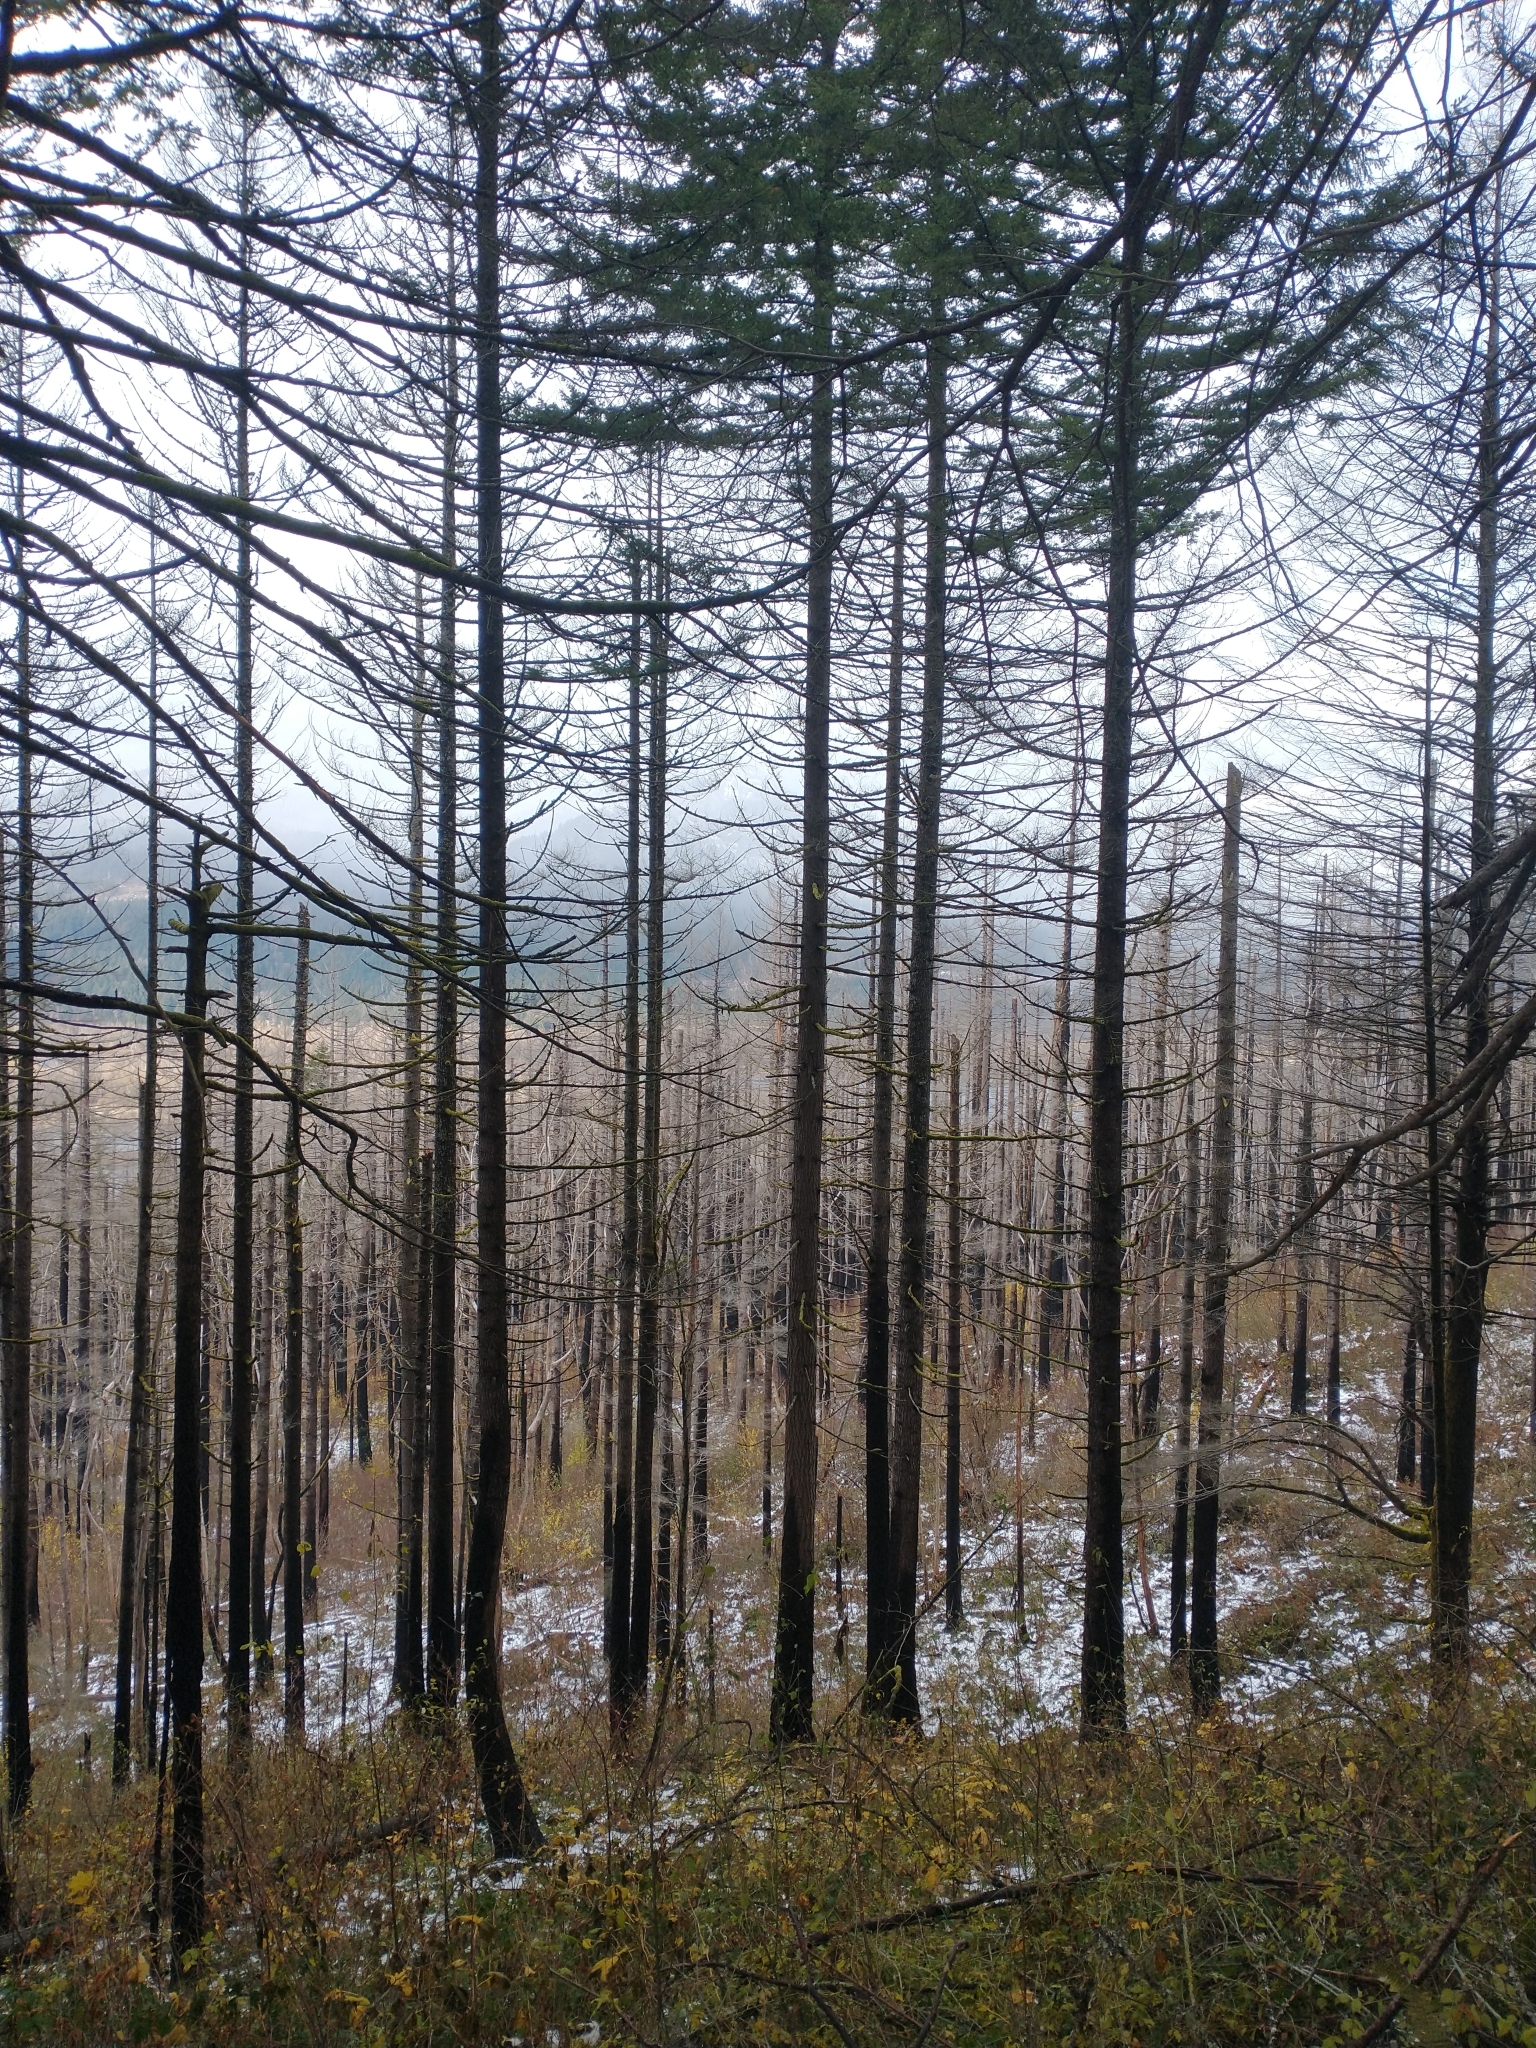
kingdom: Plantae
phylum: Tracheophyta
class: Pinopsida
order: Pinales
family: Pinaceae
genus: Pseudotsuga
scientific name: Pseudotsuga menziesii
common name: Douglas fir
